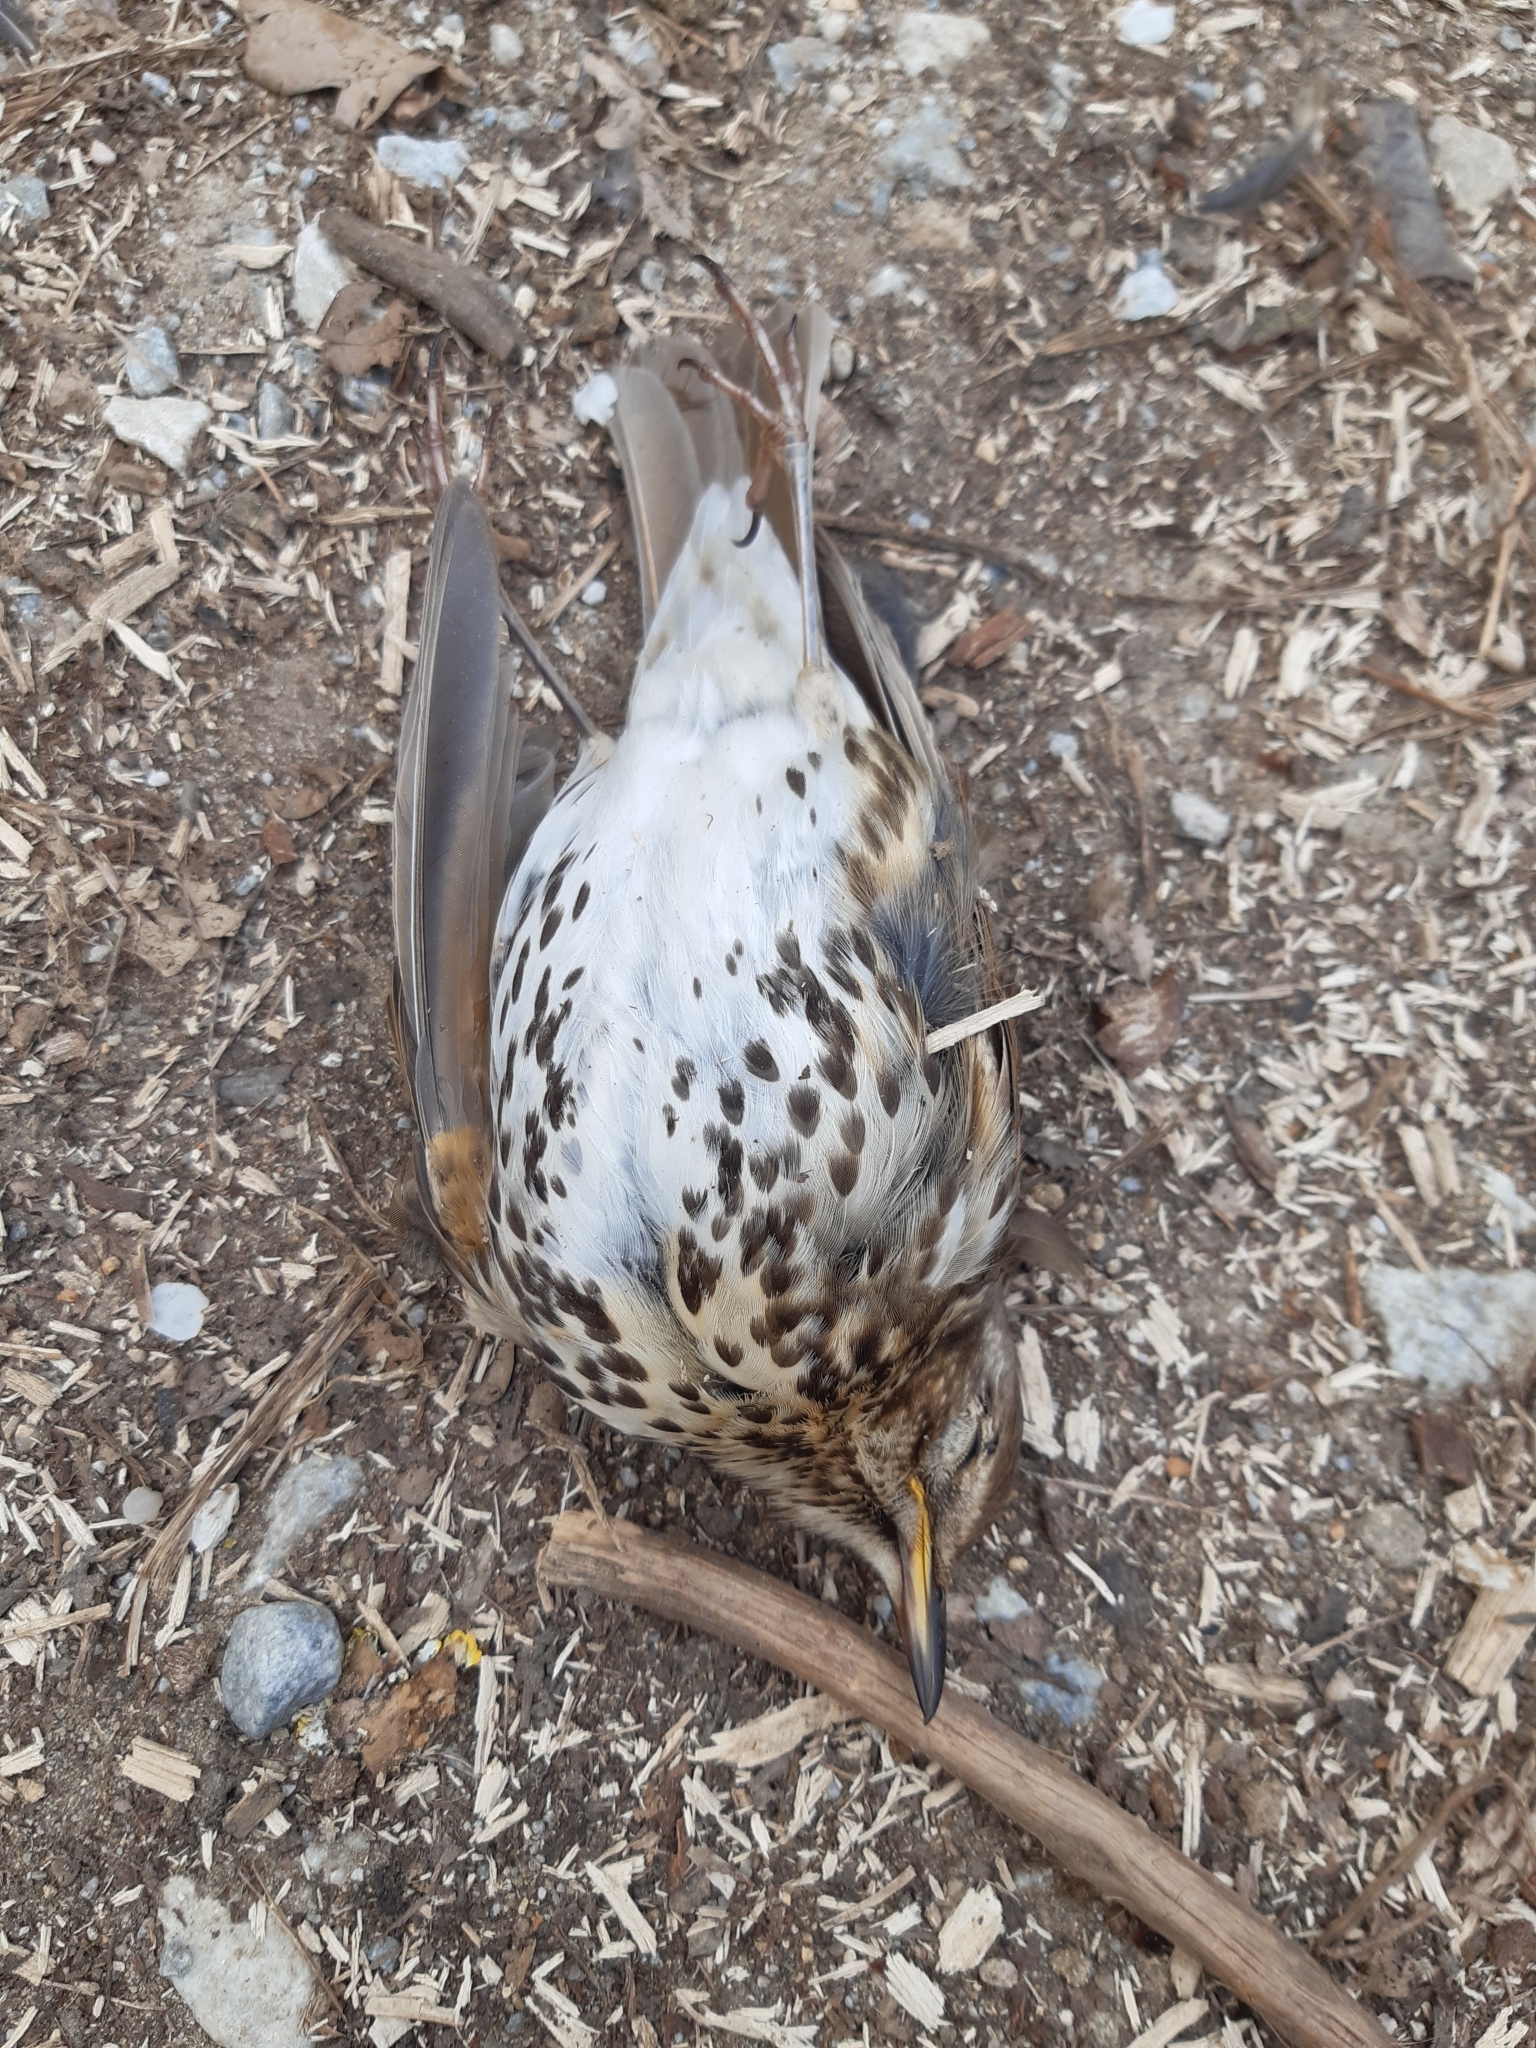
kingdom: Animalia
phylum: Chordata
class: Aves
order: Passeriformes
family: Turdidae
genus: Turdus
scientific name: Turdus philomelos
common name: Song thrush
